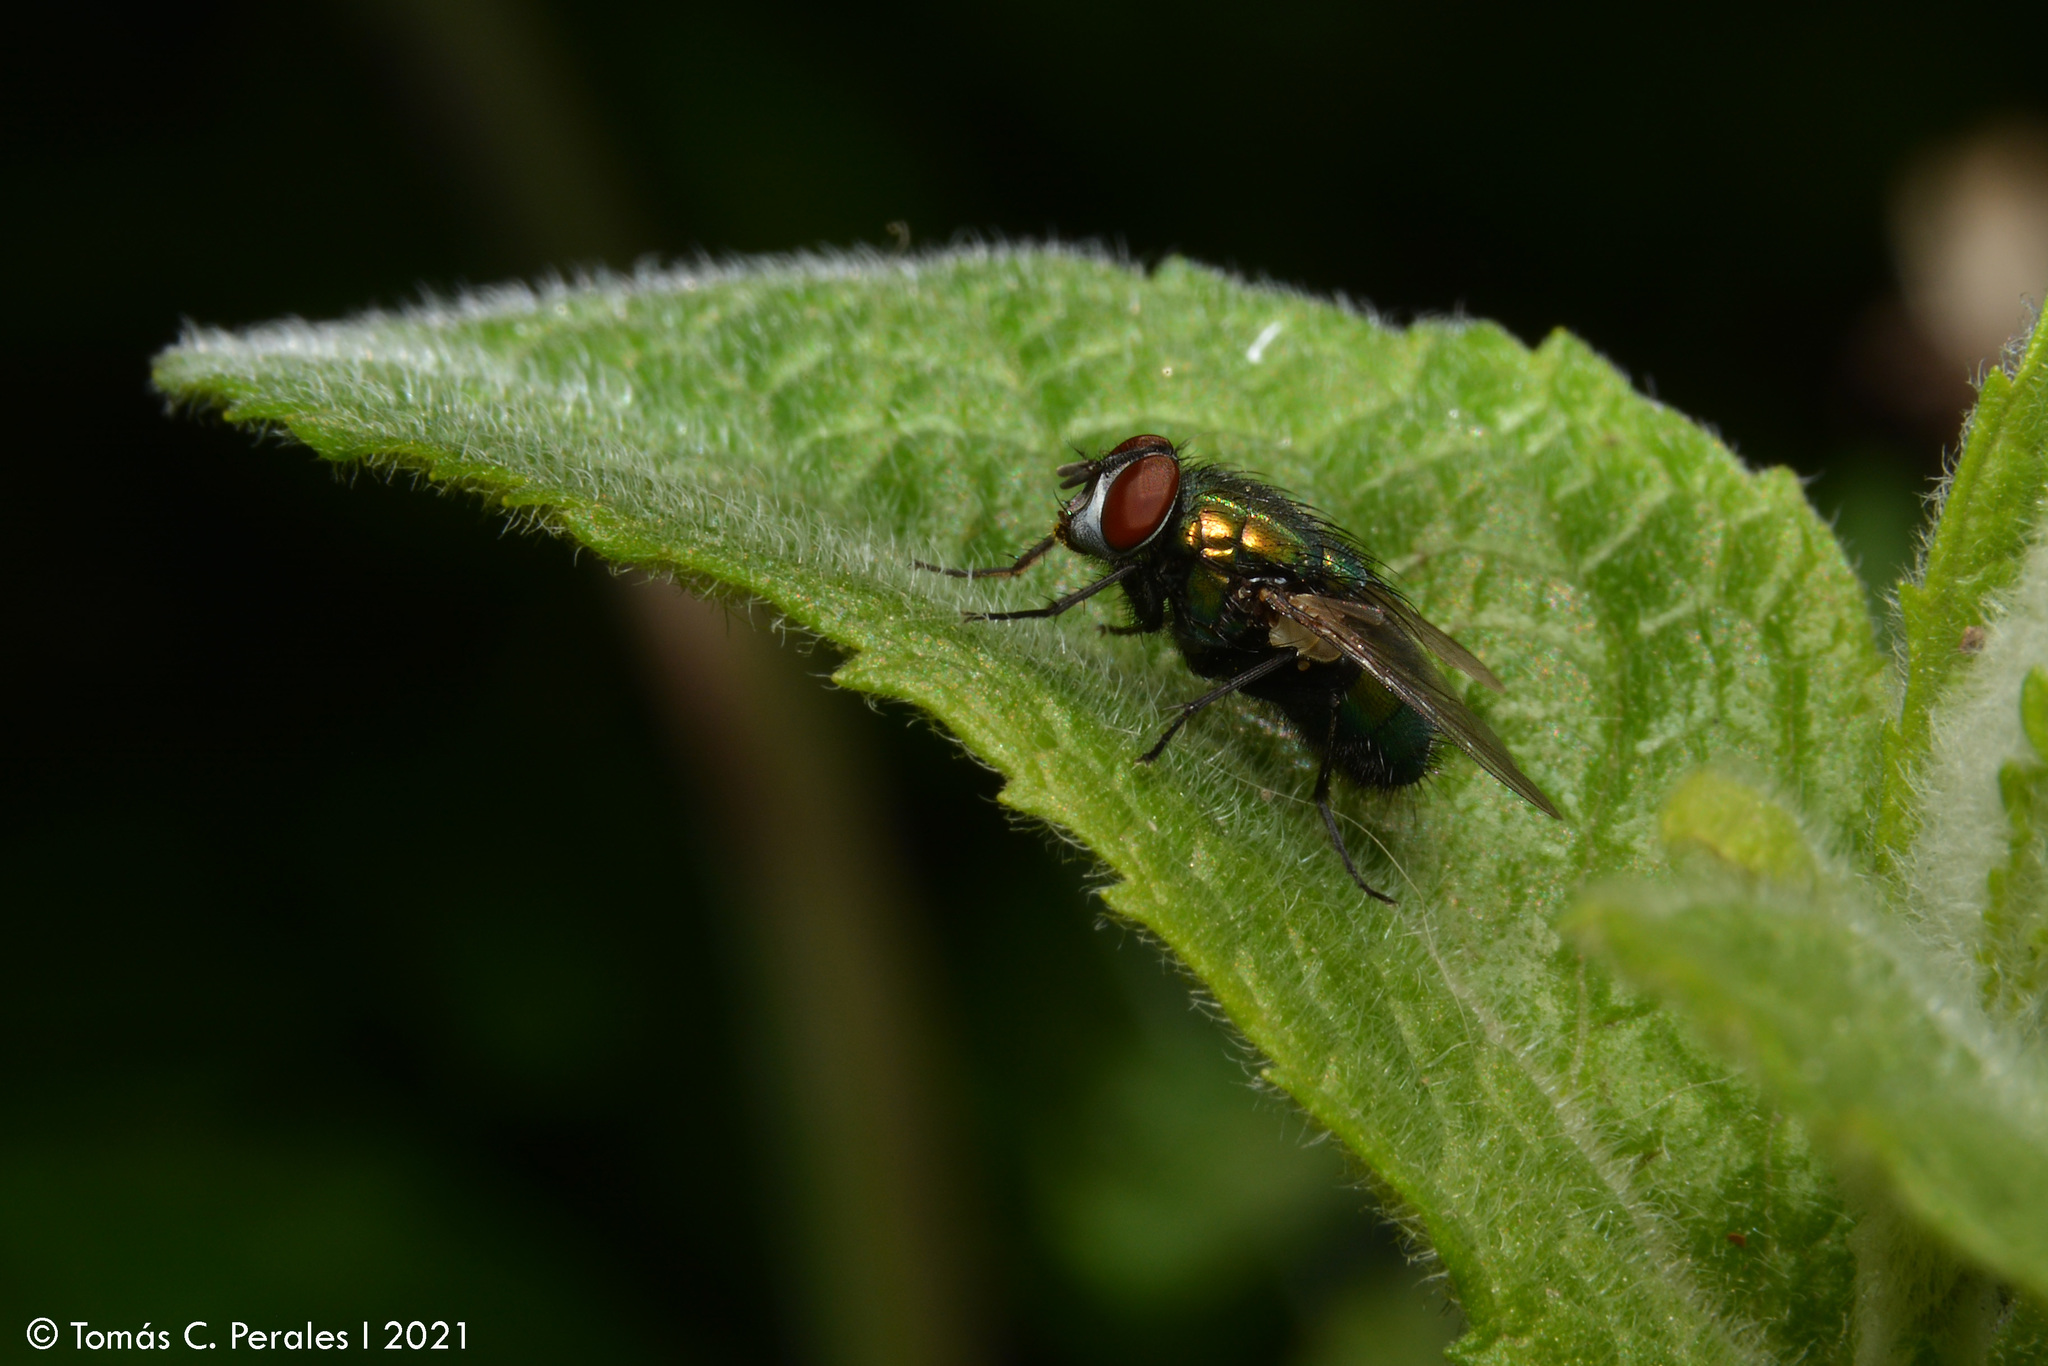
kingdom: Animalia
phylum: Arthropoda
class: Insecta
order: Diptera
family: Calliphoridae
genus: Lucilia
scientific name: Lucilia sericata
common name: Blow fly
